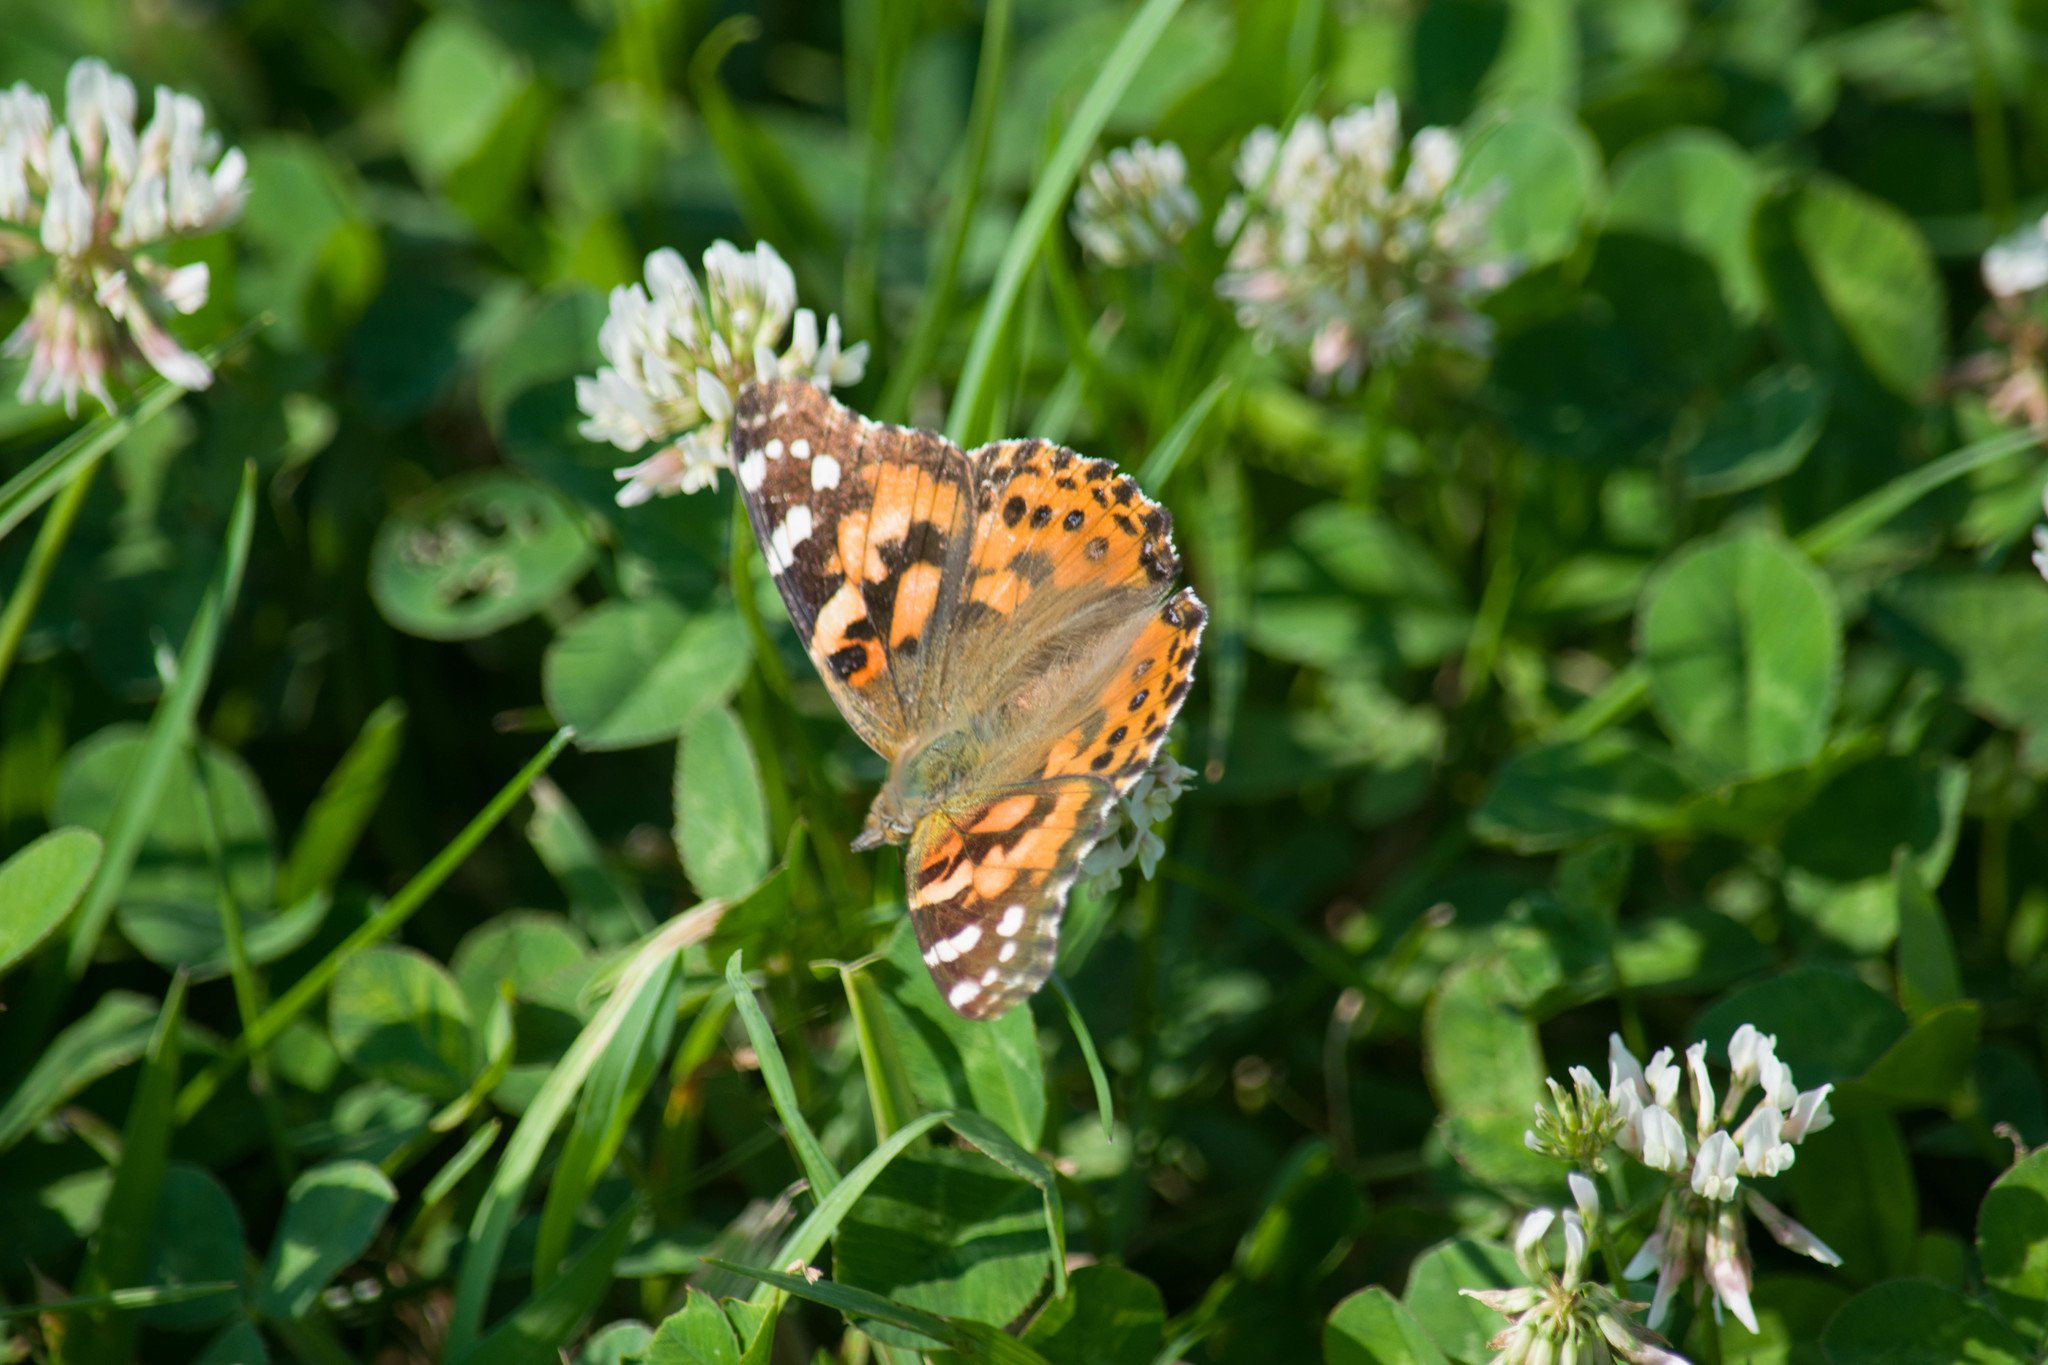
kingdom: Animalia
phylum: Arthropoda
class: Insecta
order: Lepidoptera
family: Nymphalidae
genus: Vanessa
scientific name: Vanessa cardui
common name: Painted lady
